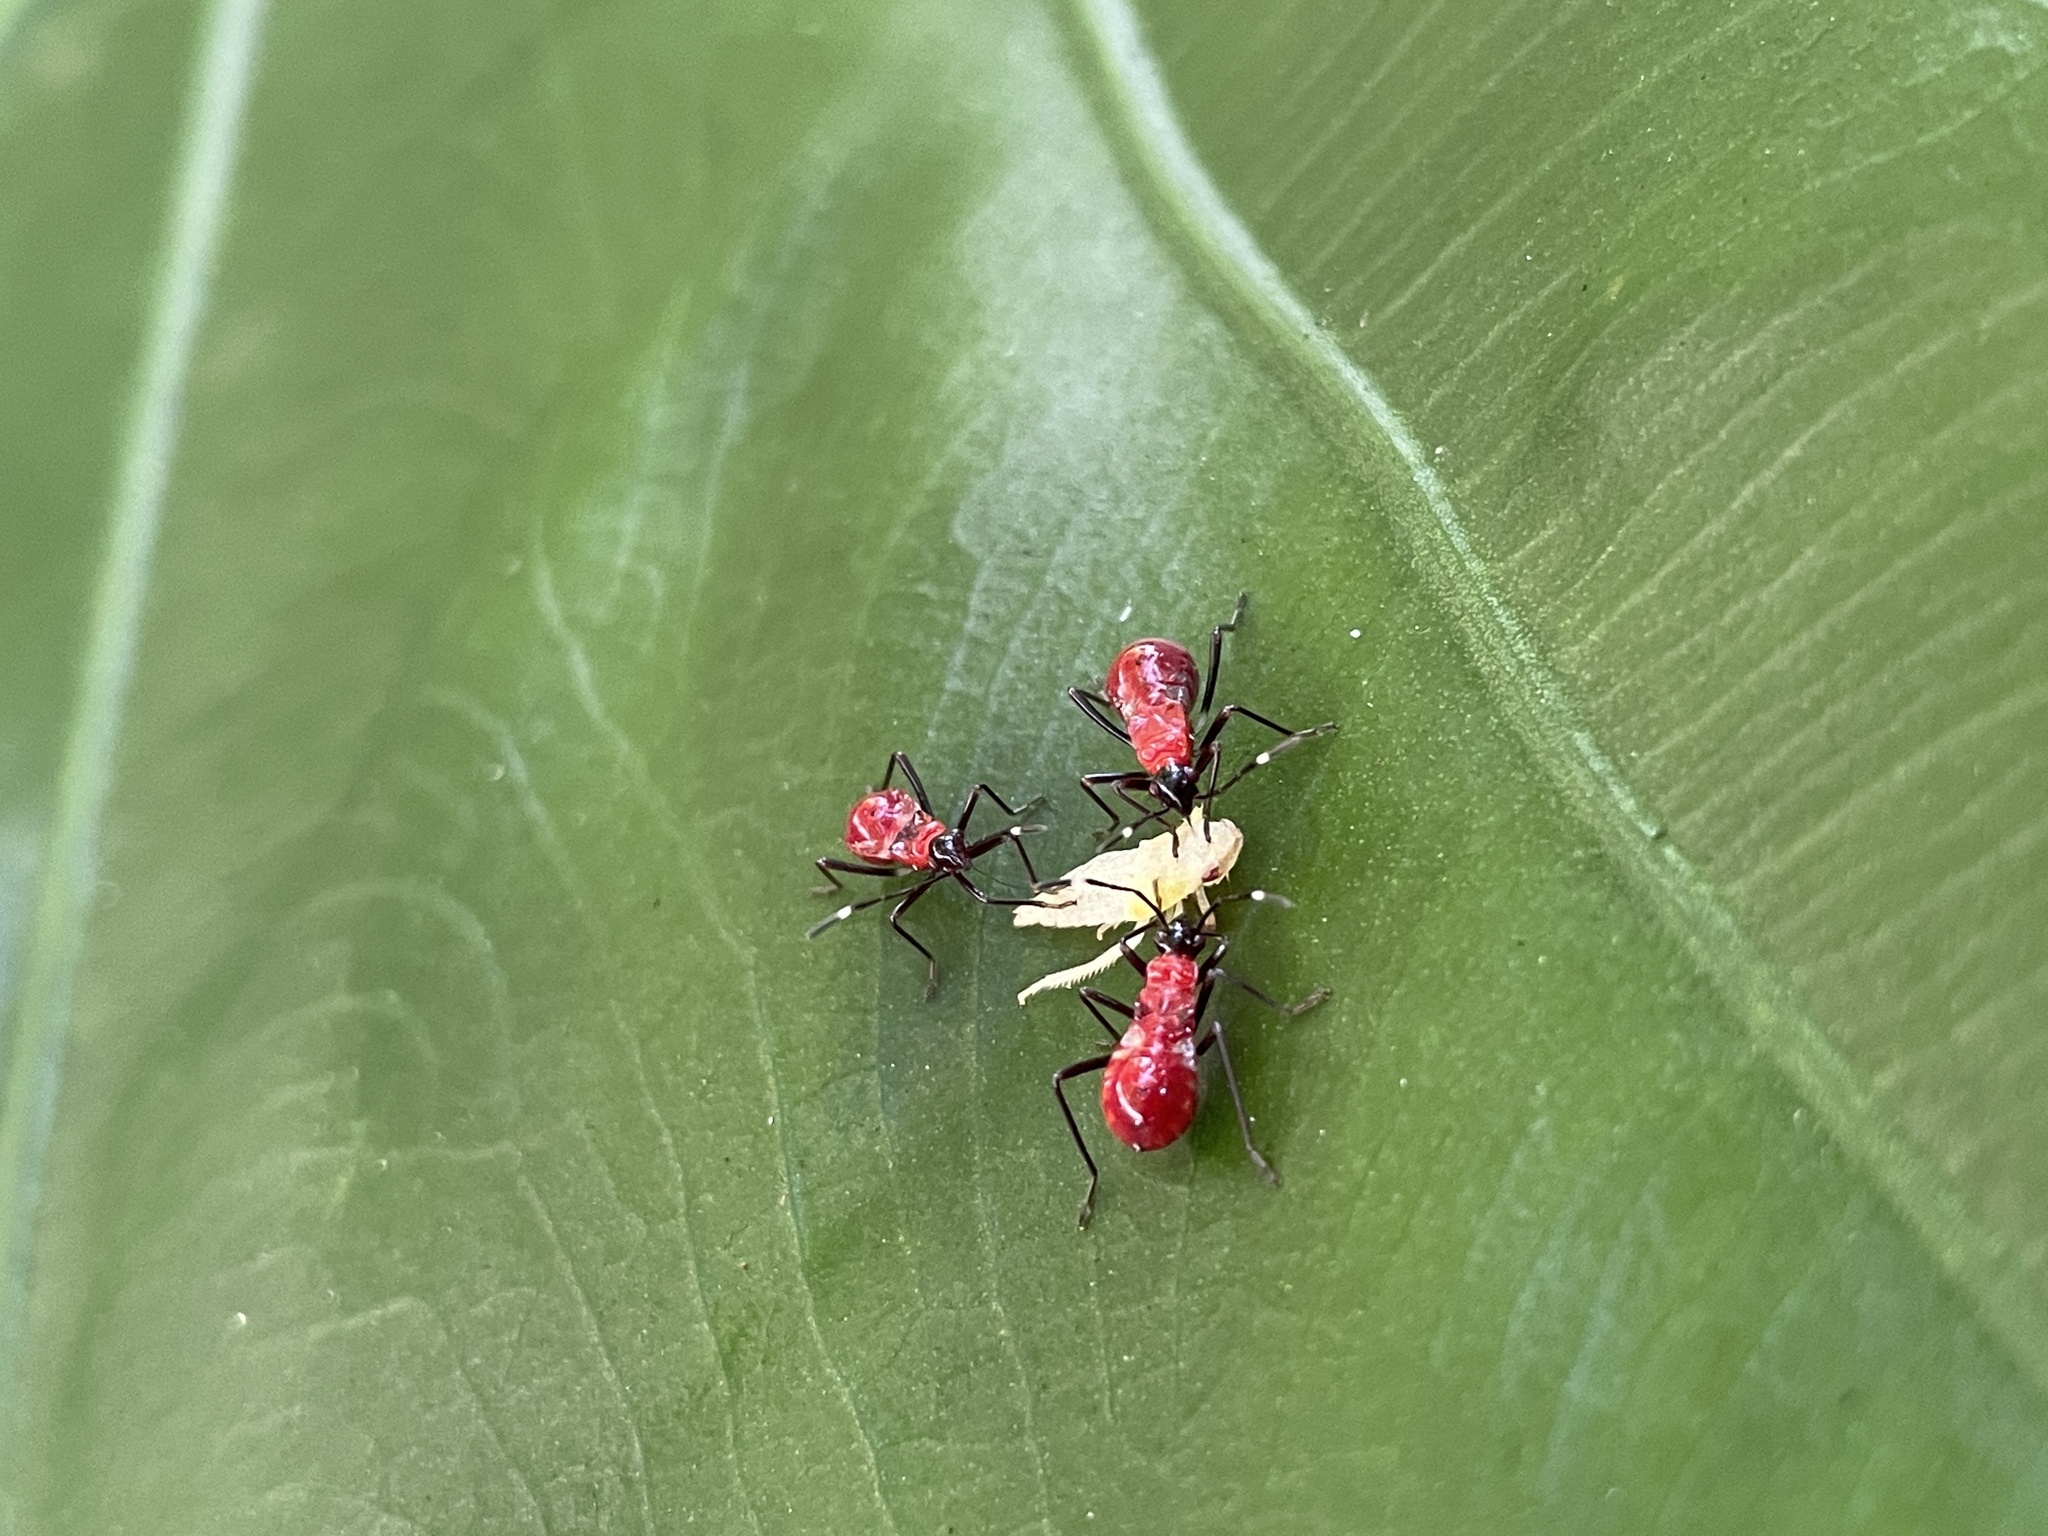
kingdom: Animalia
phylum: Arthropoda
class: Insecta
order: Hemiptera
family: Pyrrhocoridae
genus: Dindymus
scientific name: Dindymus
